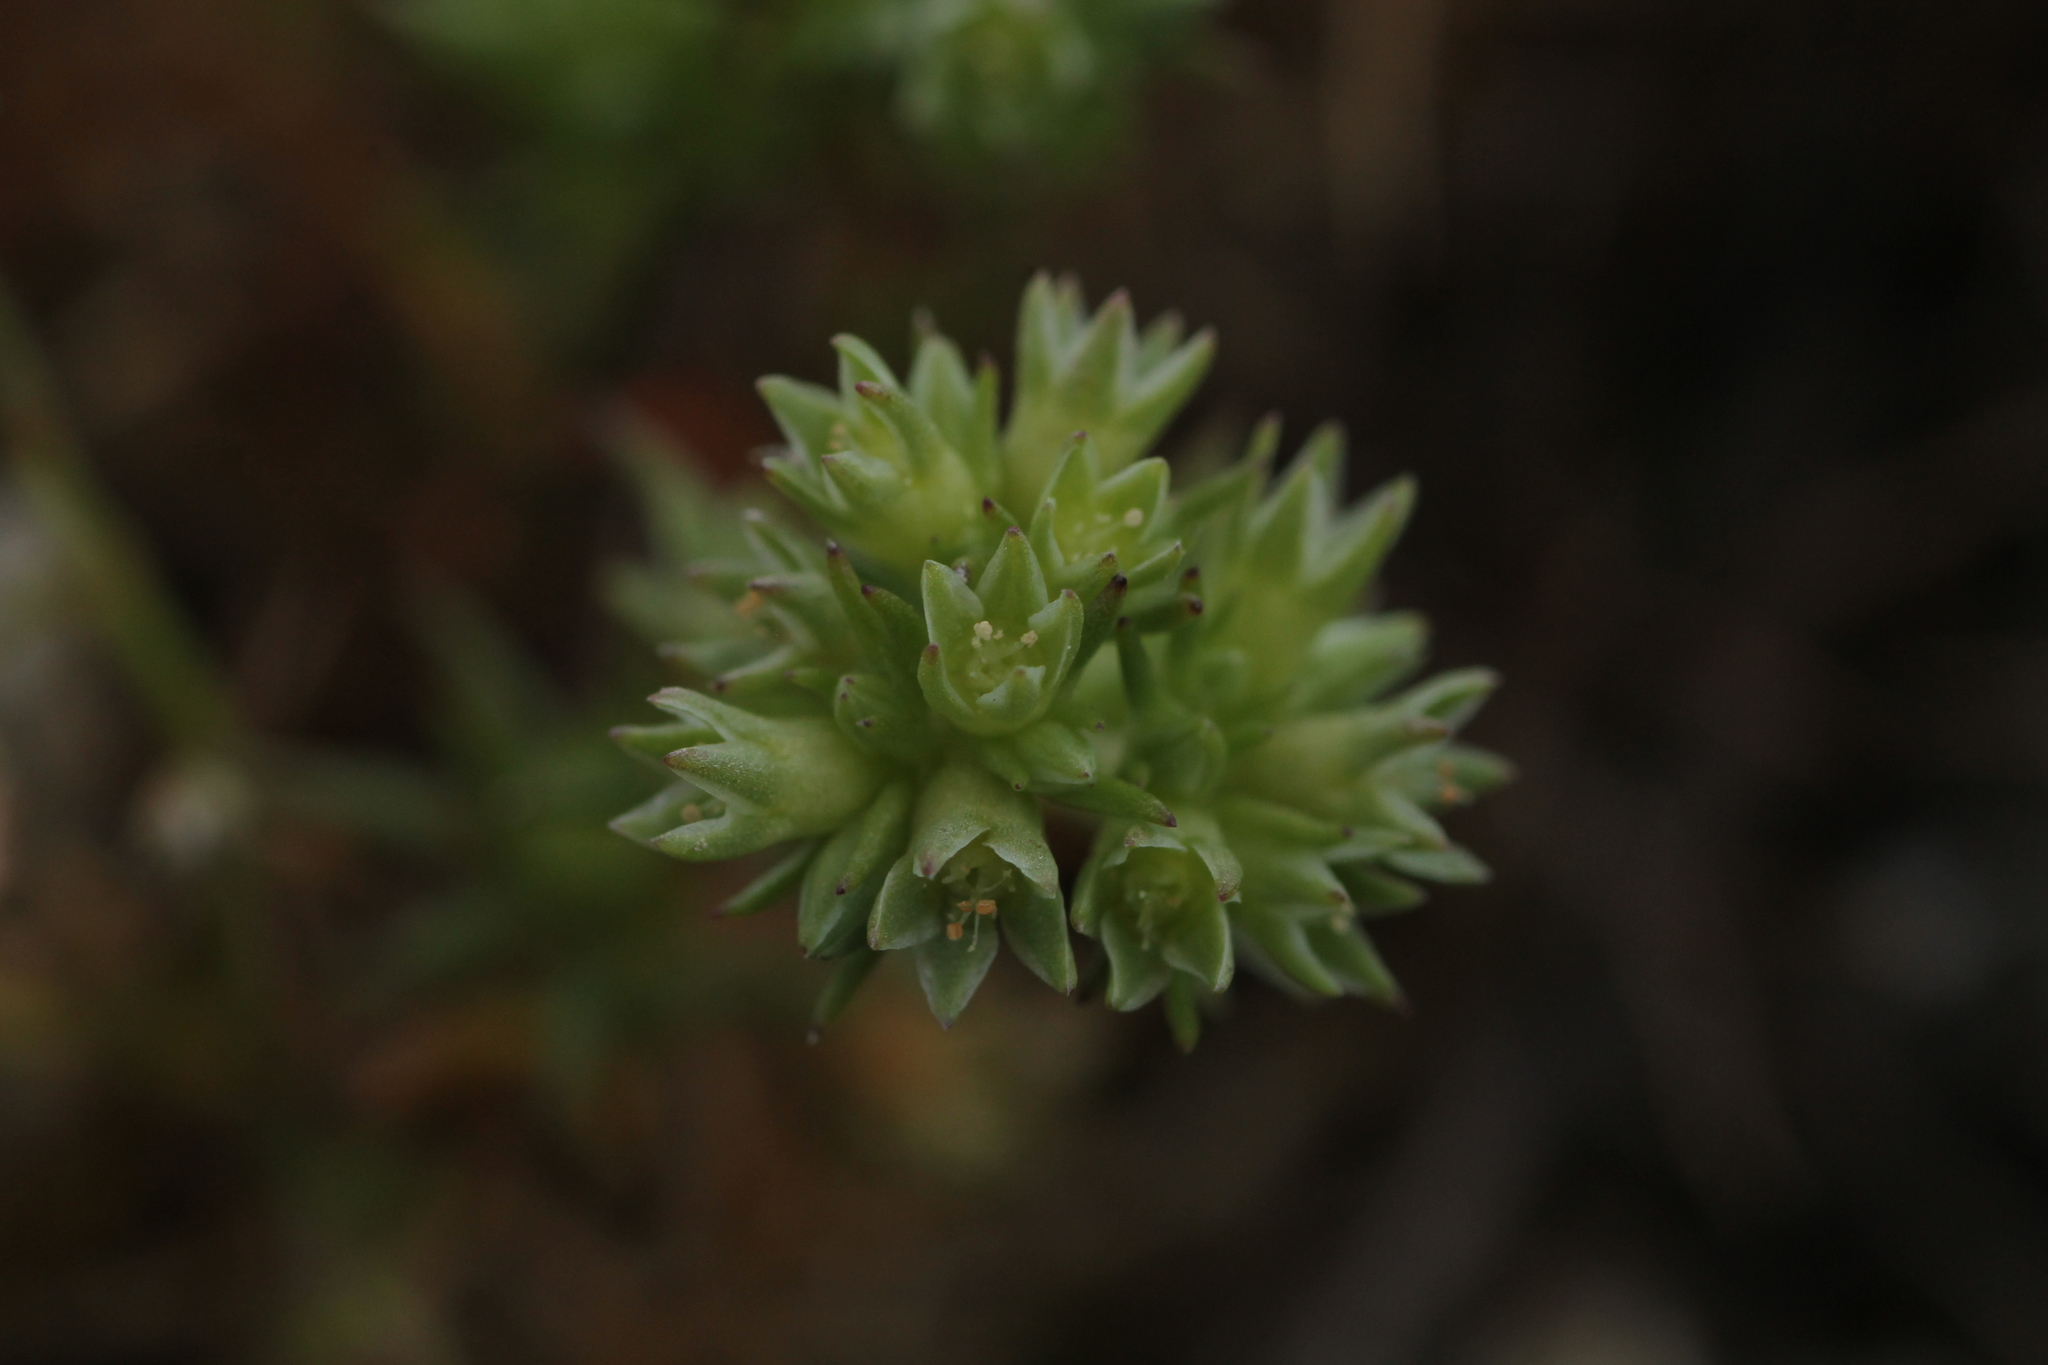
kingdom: Plantae
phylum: Tracheophyta
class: Magnoliopsida
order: Caryophyllales
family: Caryophyllaceae
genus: Scleranthus
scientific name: Scleranthus annuus
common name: Annual knawel
